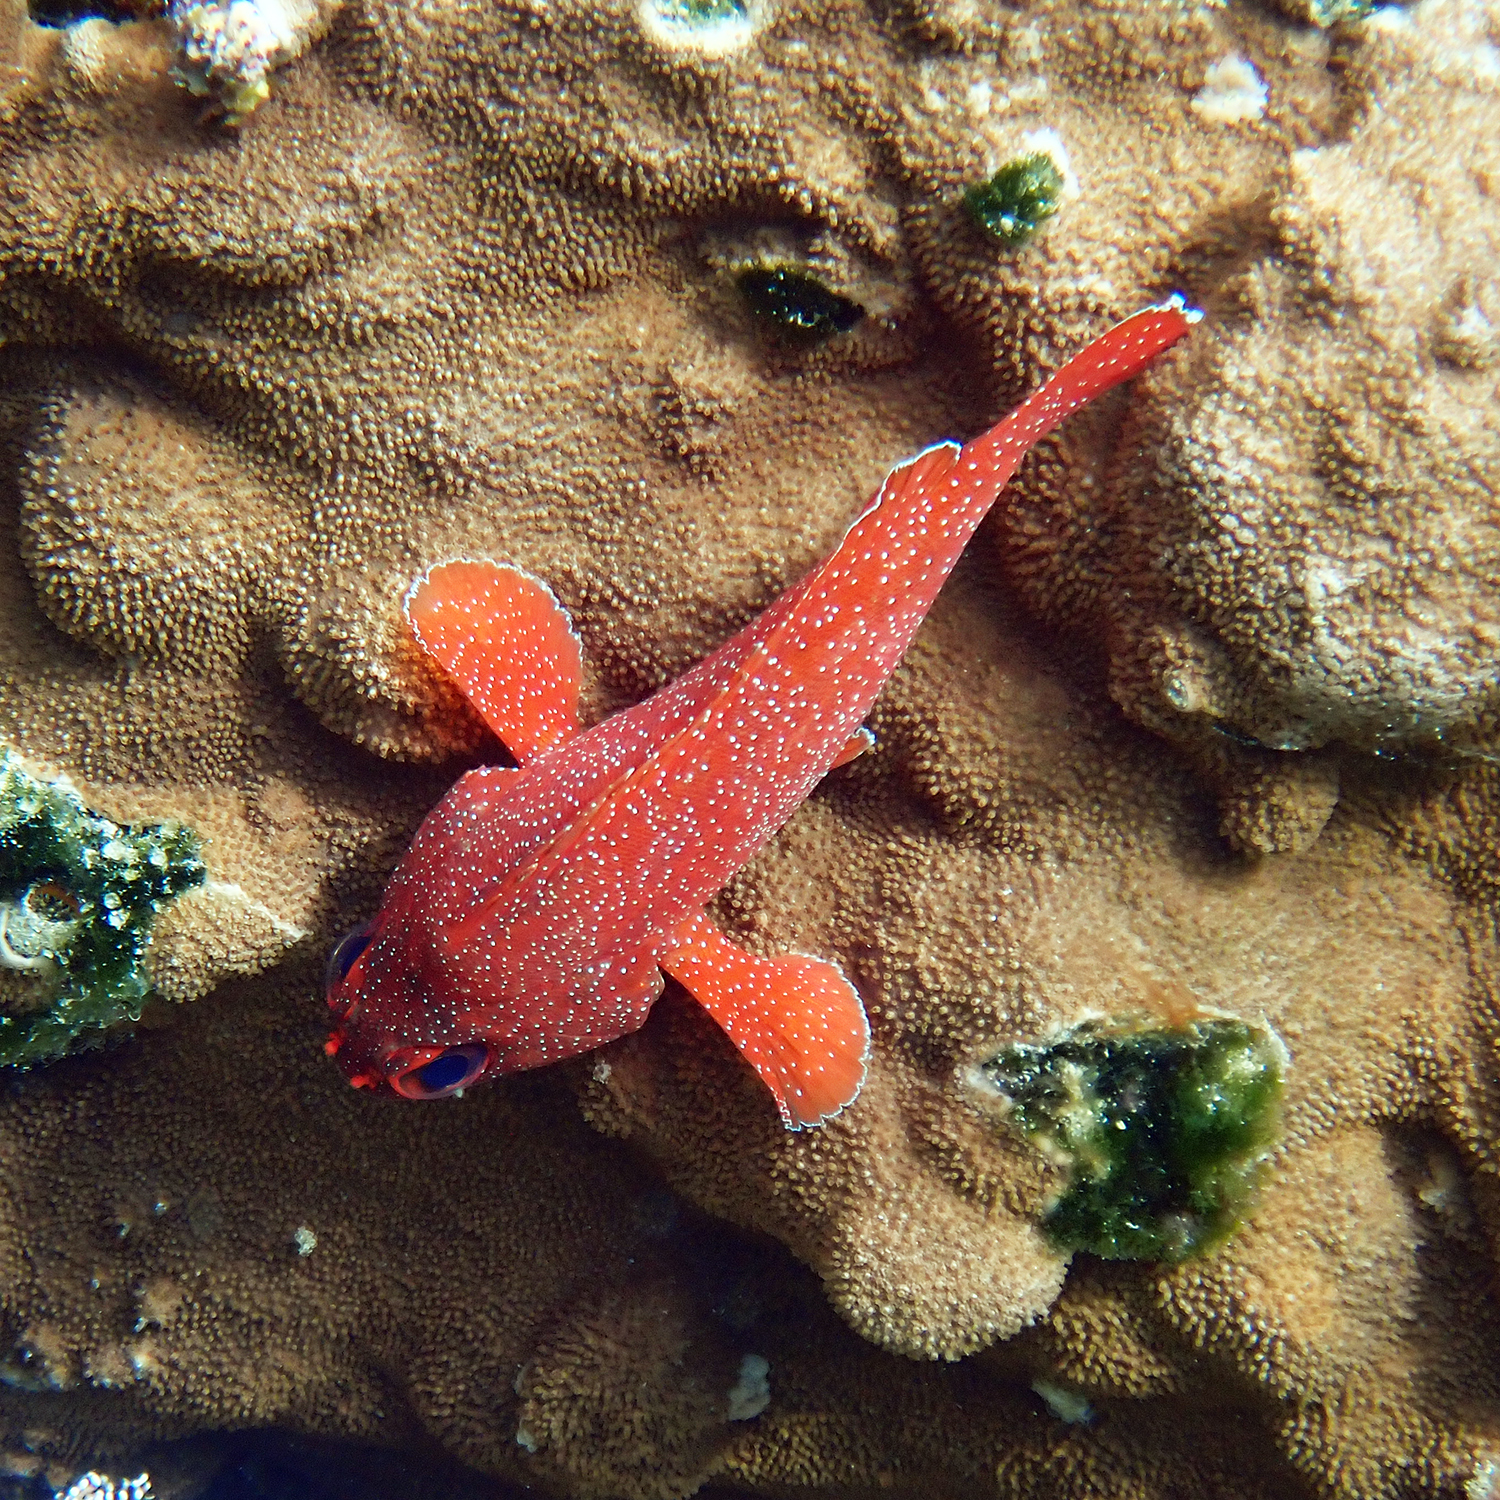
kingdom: Animalia
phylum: Chordata
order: Perciformes
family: Serranidae
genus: Trachypoma
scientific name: Trachypoma macracanthus
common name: Toadstool grouper
